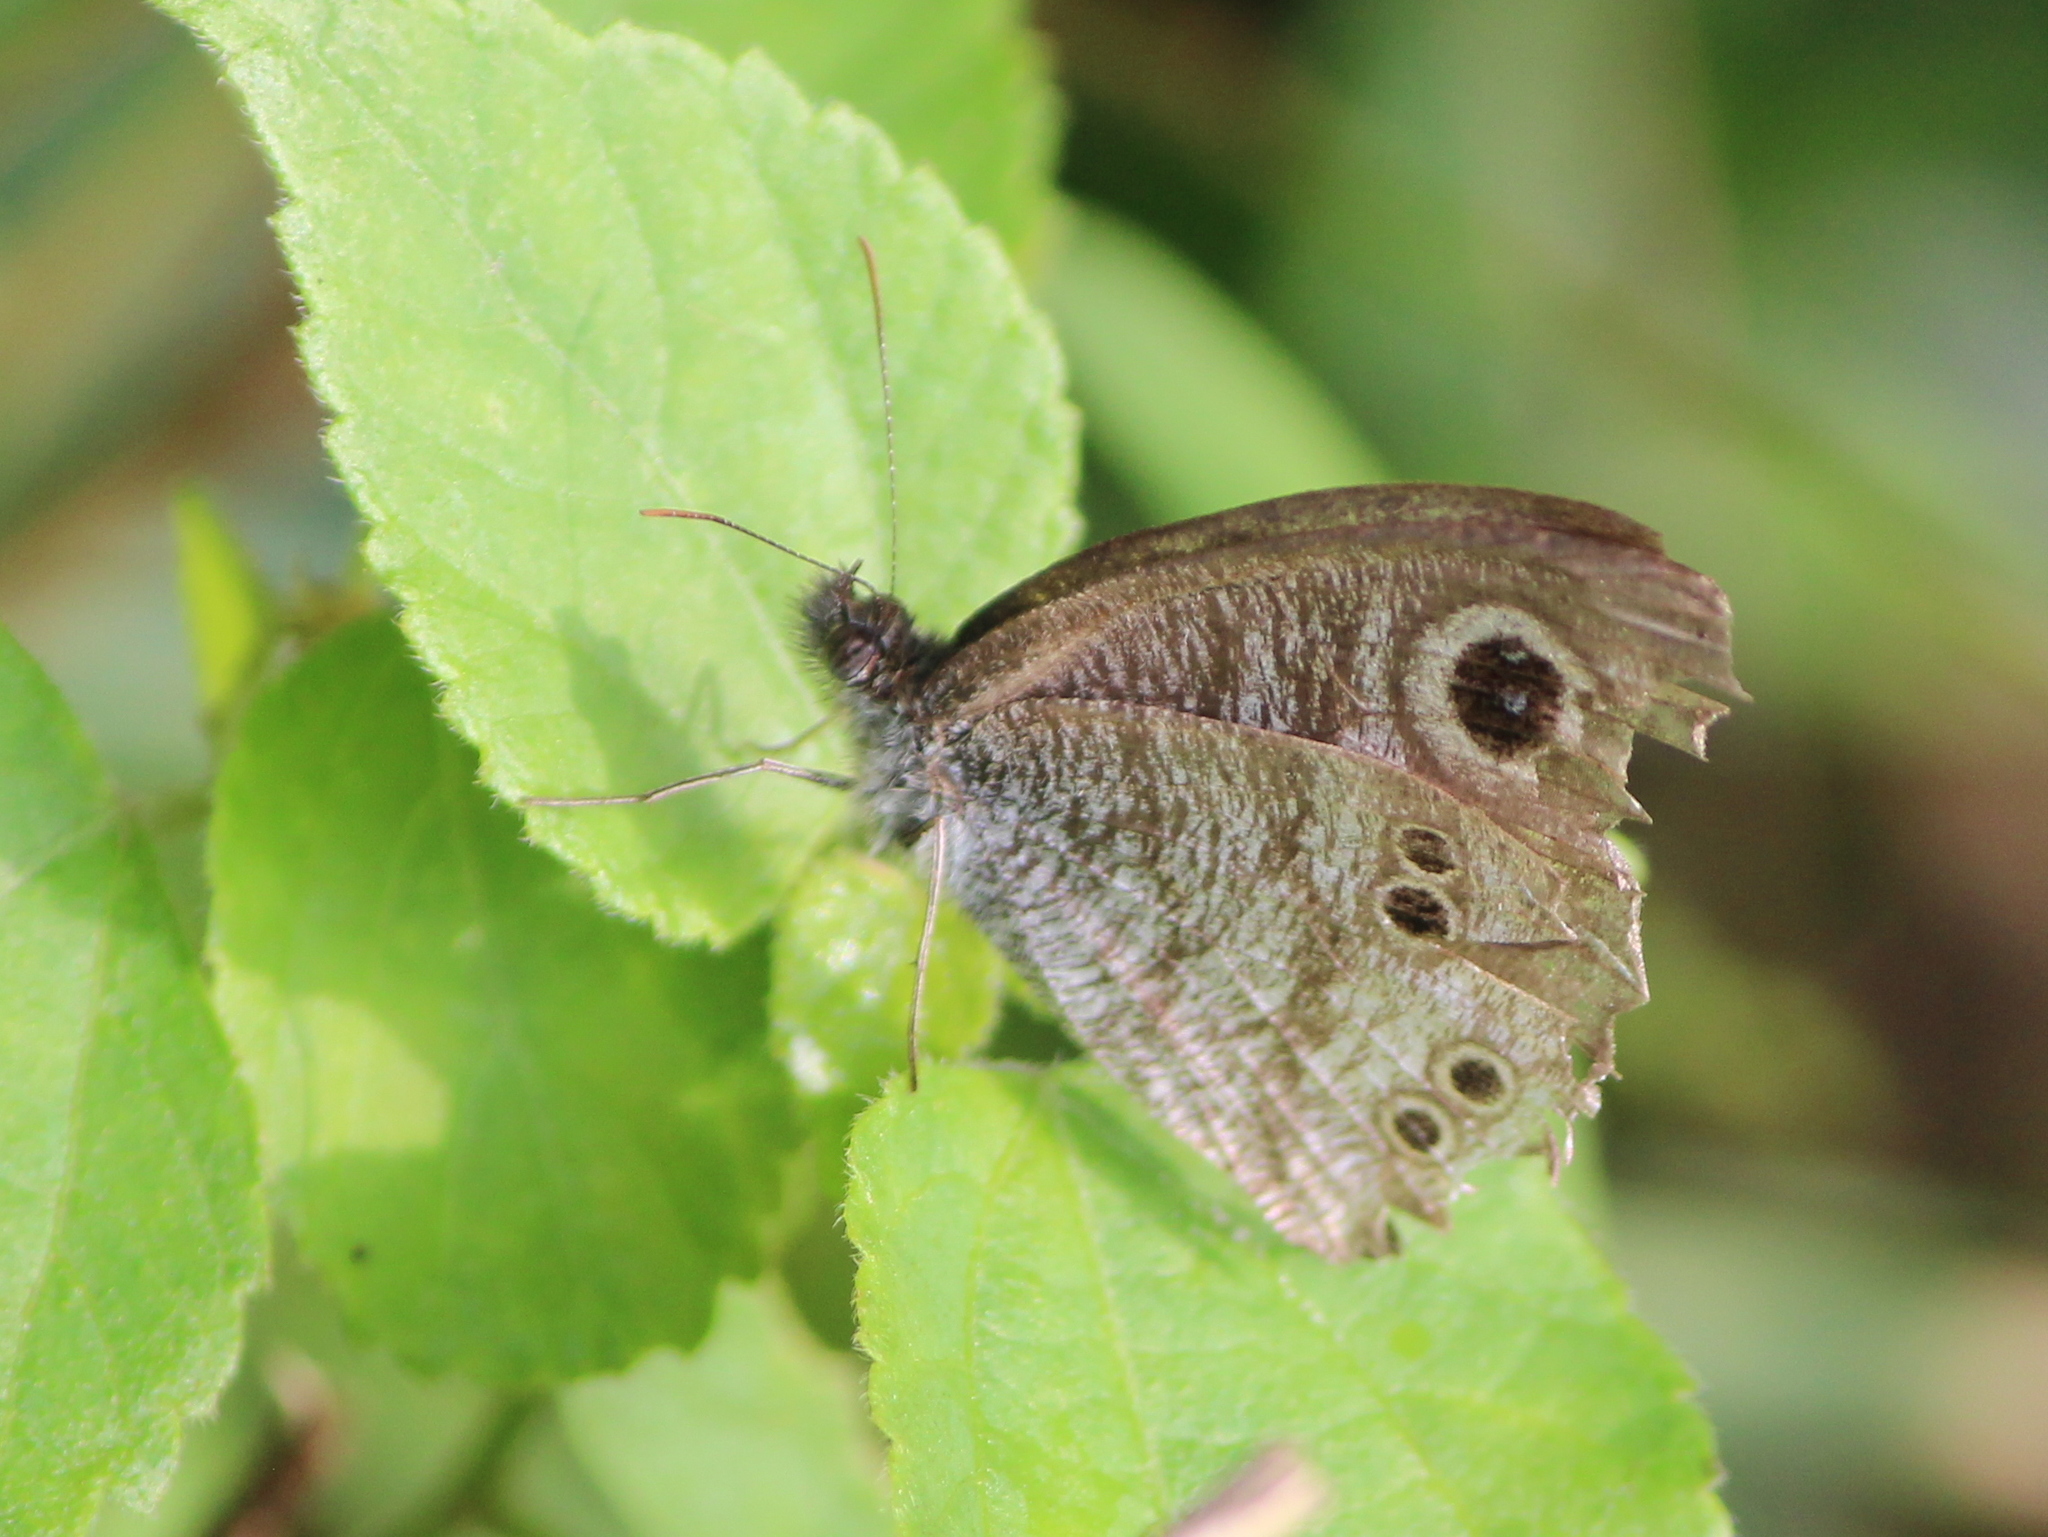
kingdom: Animalia
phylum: Arthropoda
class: Insecta
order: Lepidoptera
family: Nymphalidae
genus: Ypthima
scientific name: Ypthima baldus
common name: Common five-ring
